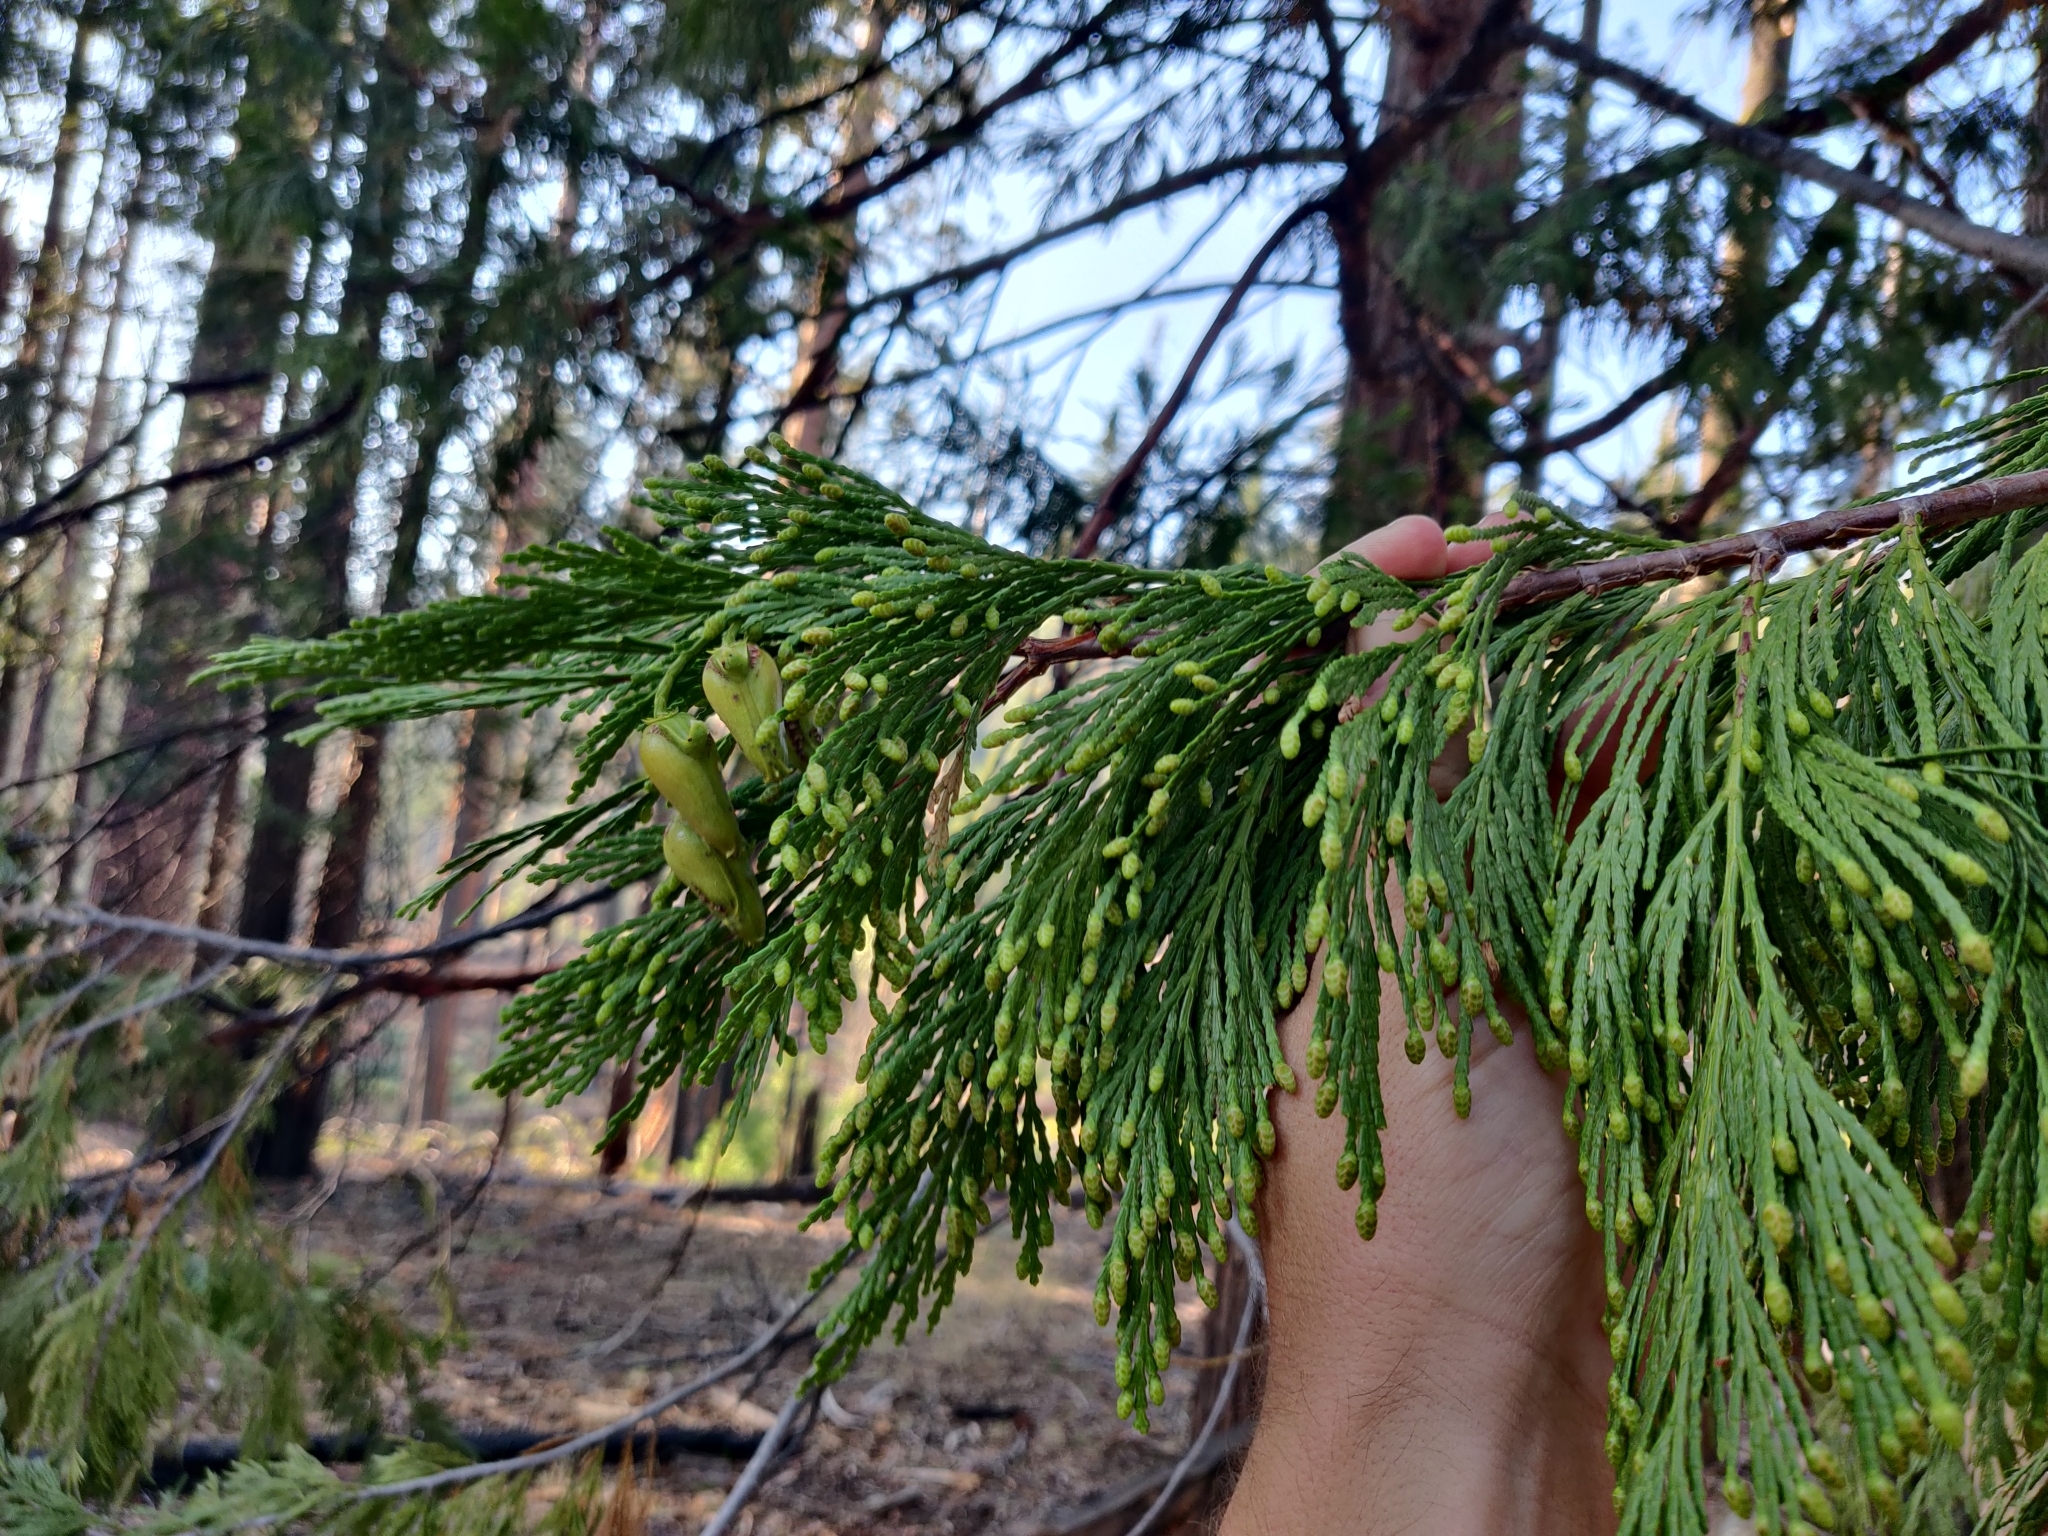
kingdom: Plantae
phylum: Tracheophyta
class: Pinopsida
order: Pinales
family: Cupressaceae
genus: Calocedrus
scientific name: Calocedrus decurrens
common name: Californian incense-cedar
